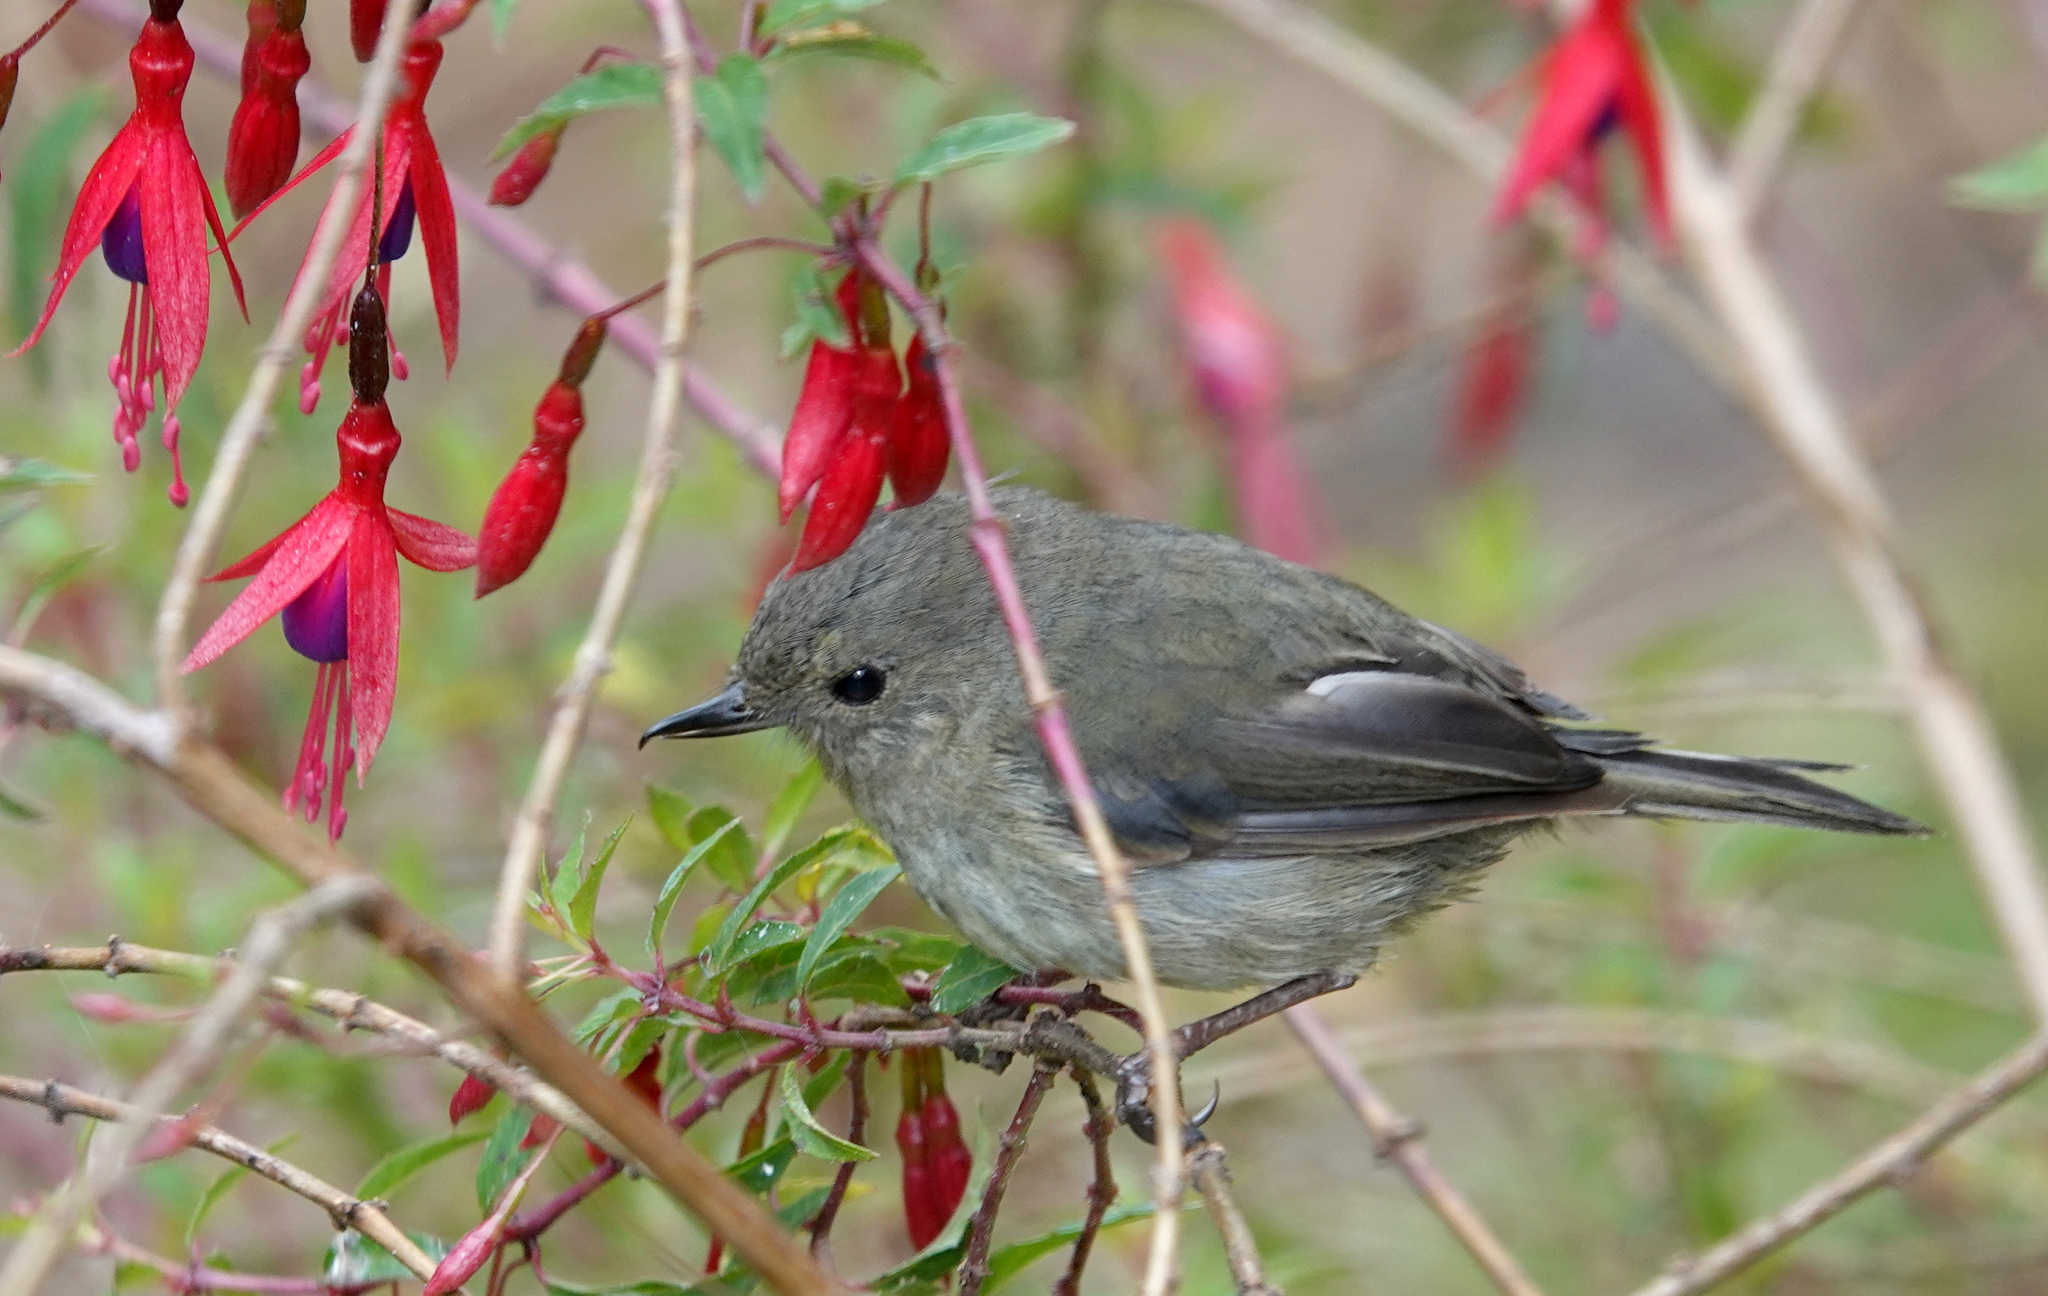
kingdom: Animalia
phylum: Chordata
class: Aves
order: Passeriformes
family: Thraupidae
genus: Diglossa
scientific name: Diglossa plumbea
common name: Slaty flowerpiercer
